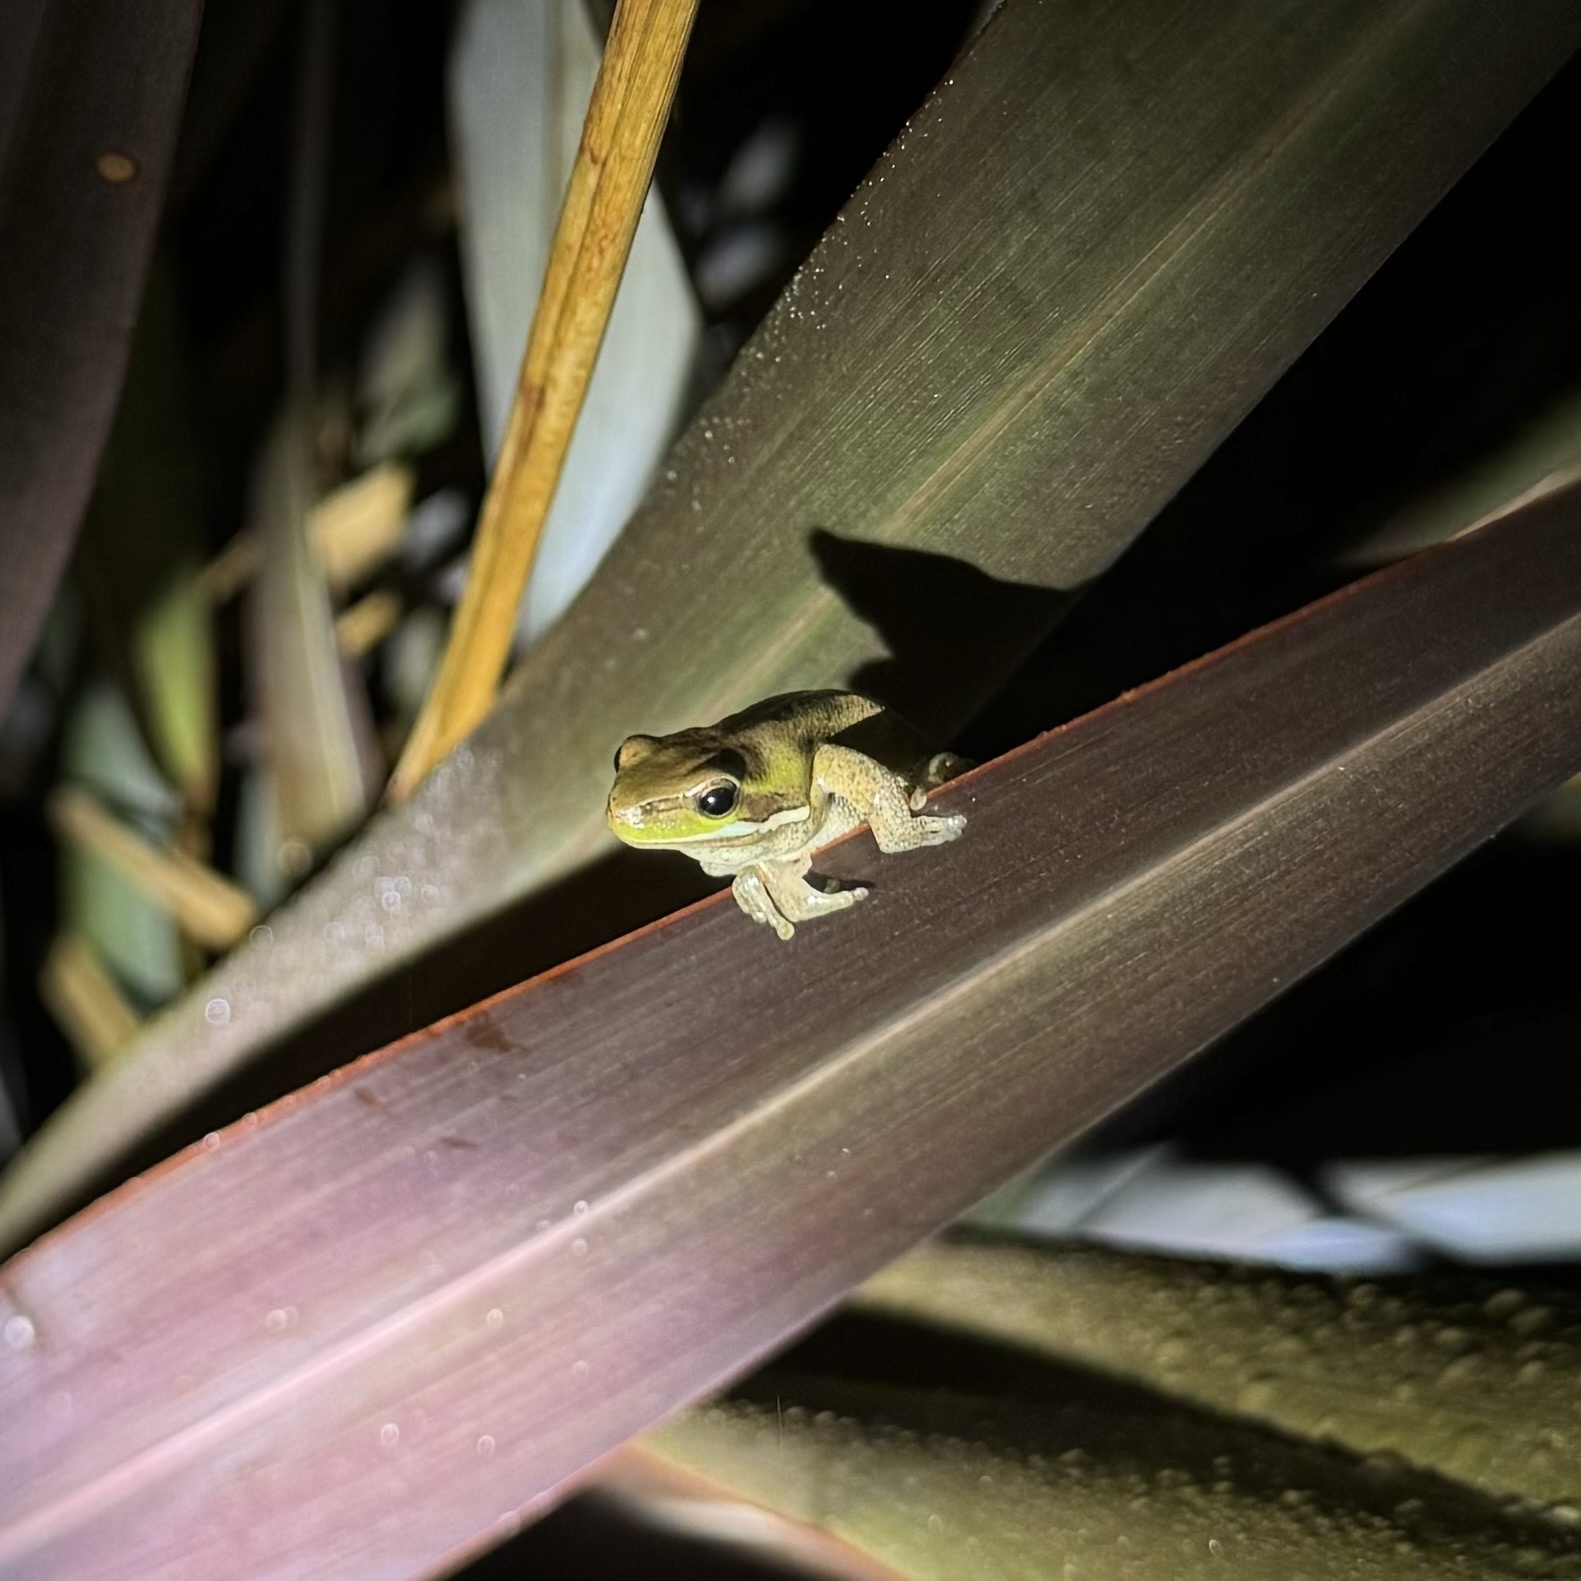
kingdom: Animalia
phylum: Chordata
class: Amphibia
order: Anura
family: Pelodryadidae
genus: Litoria
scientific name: Litoria fallax
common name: Eastern dwarf treefrog
